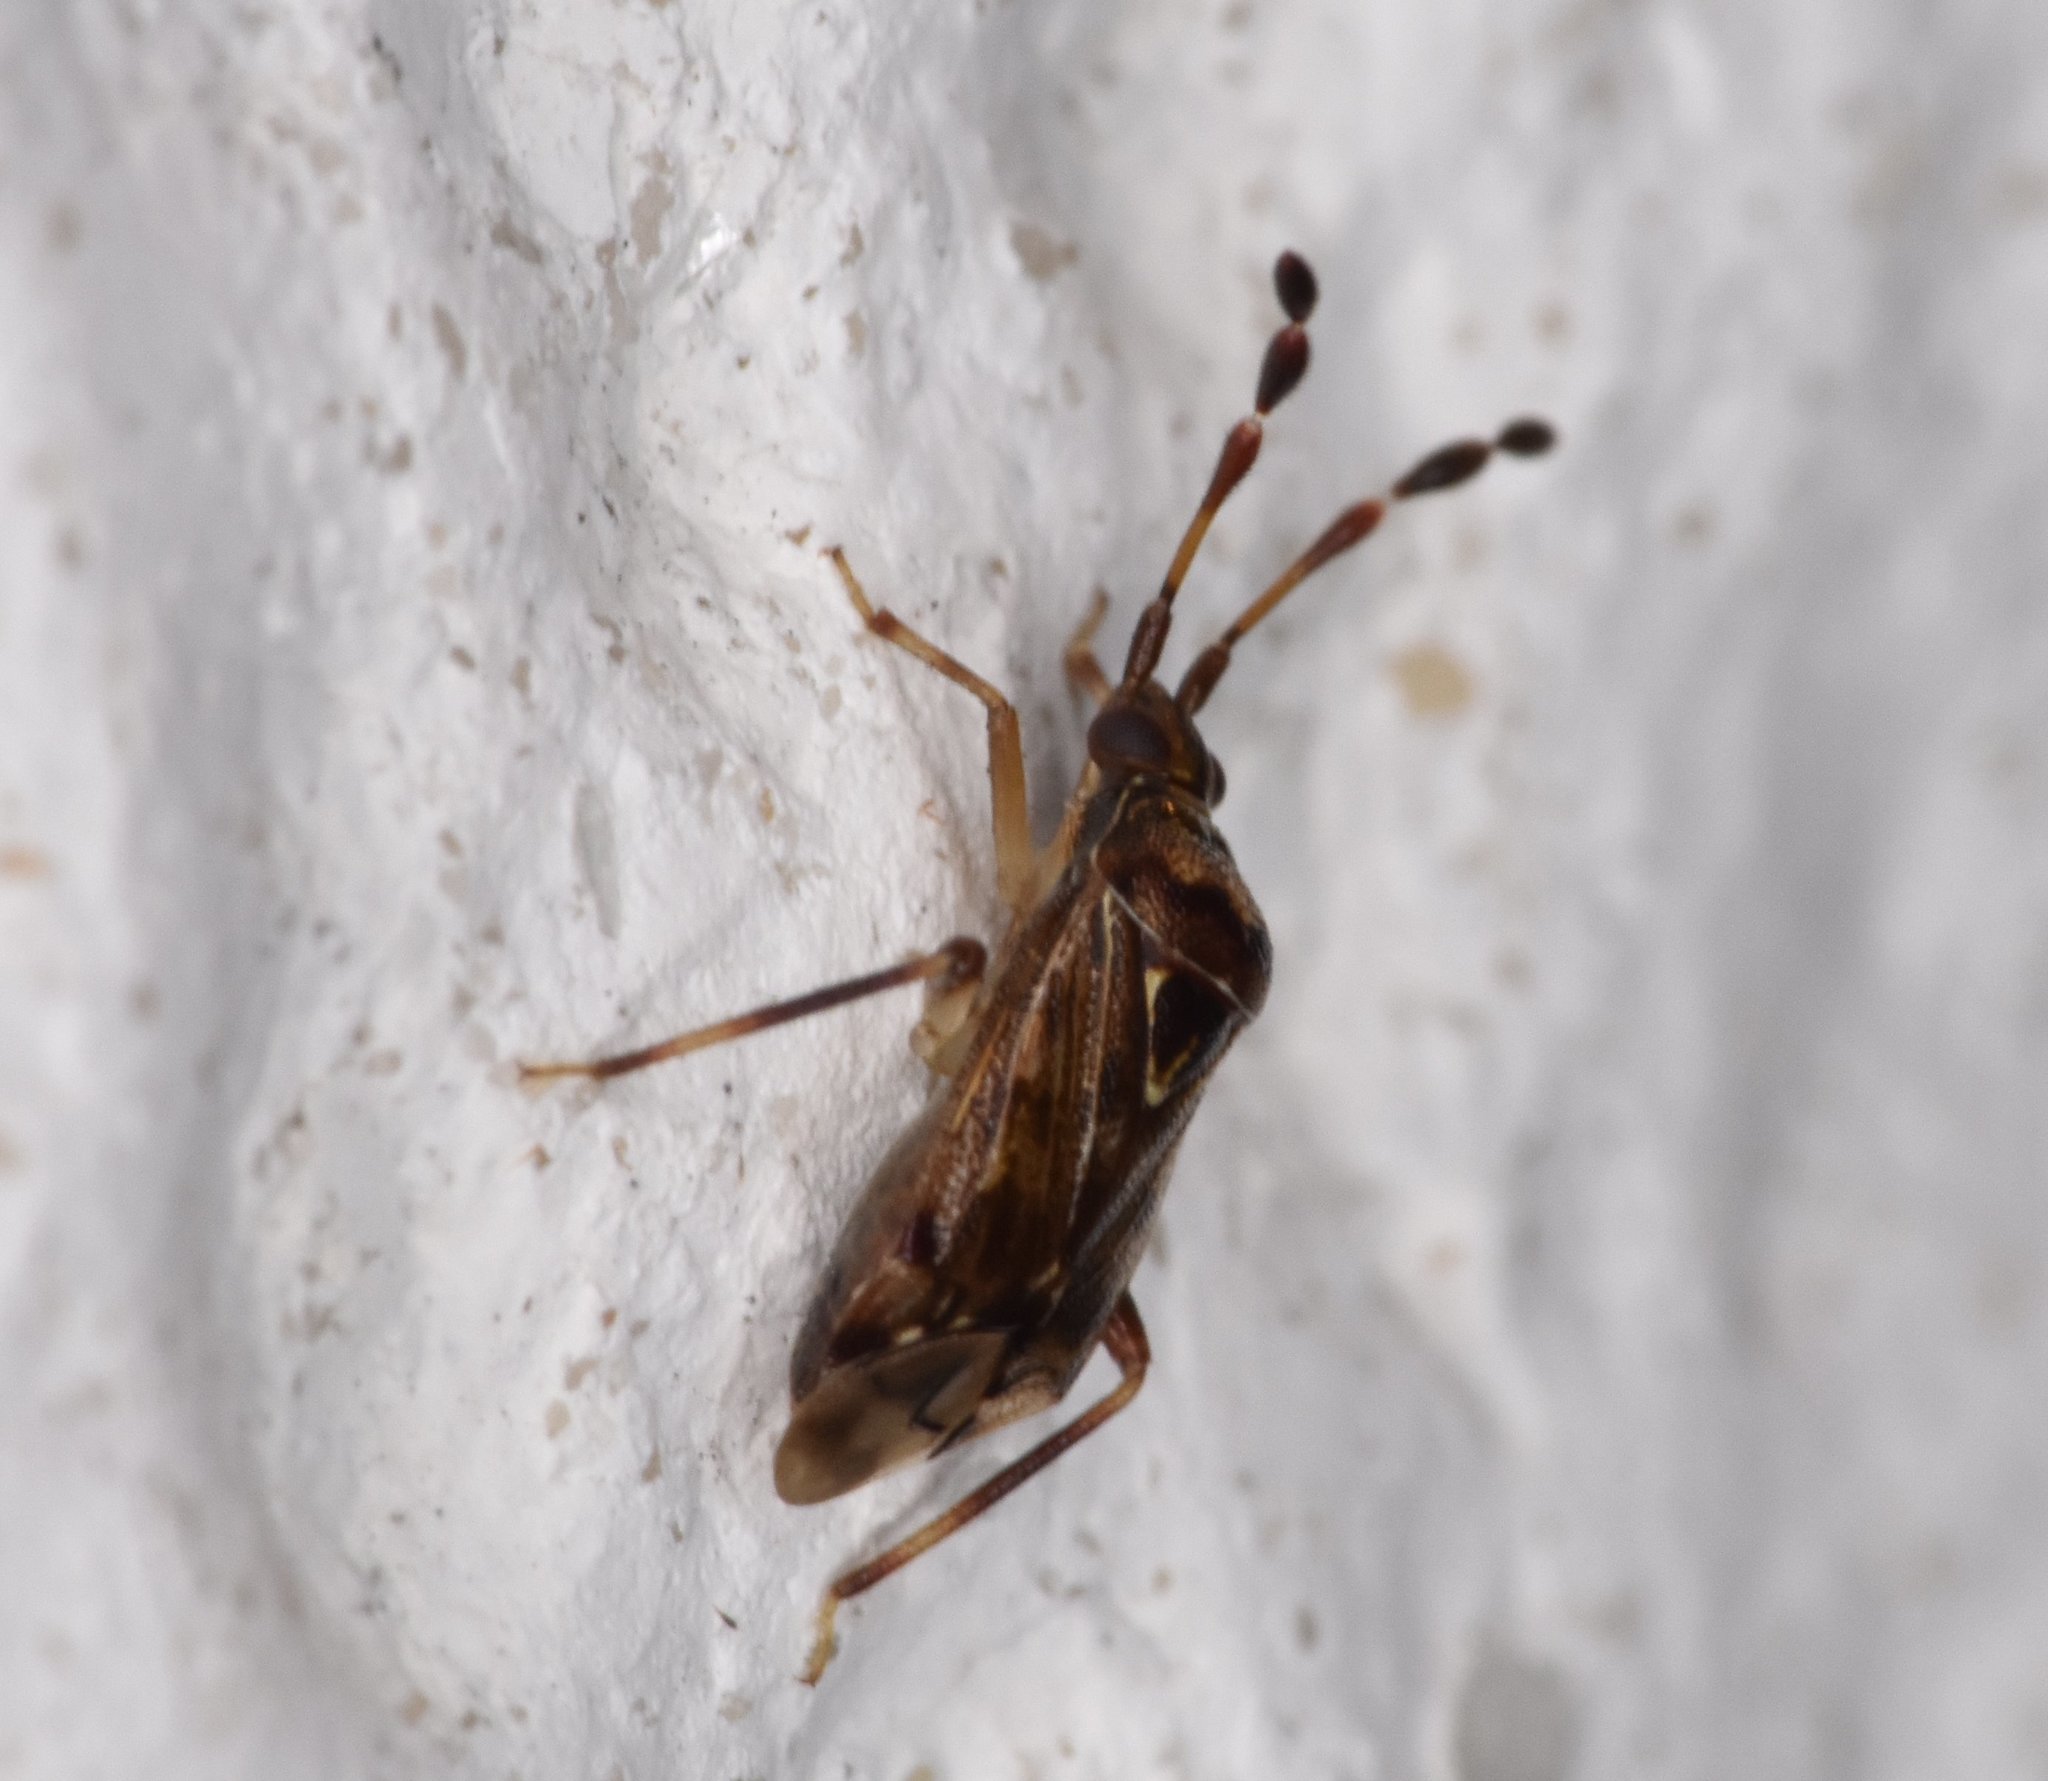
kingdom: Animalia
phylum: Arthropoda
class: Insecta
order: Hemiptera
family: Miridae
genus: Diplozona
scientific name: Diplozona collaris
